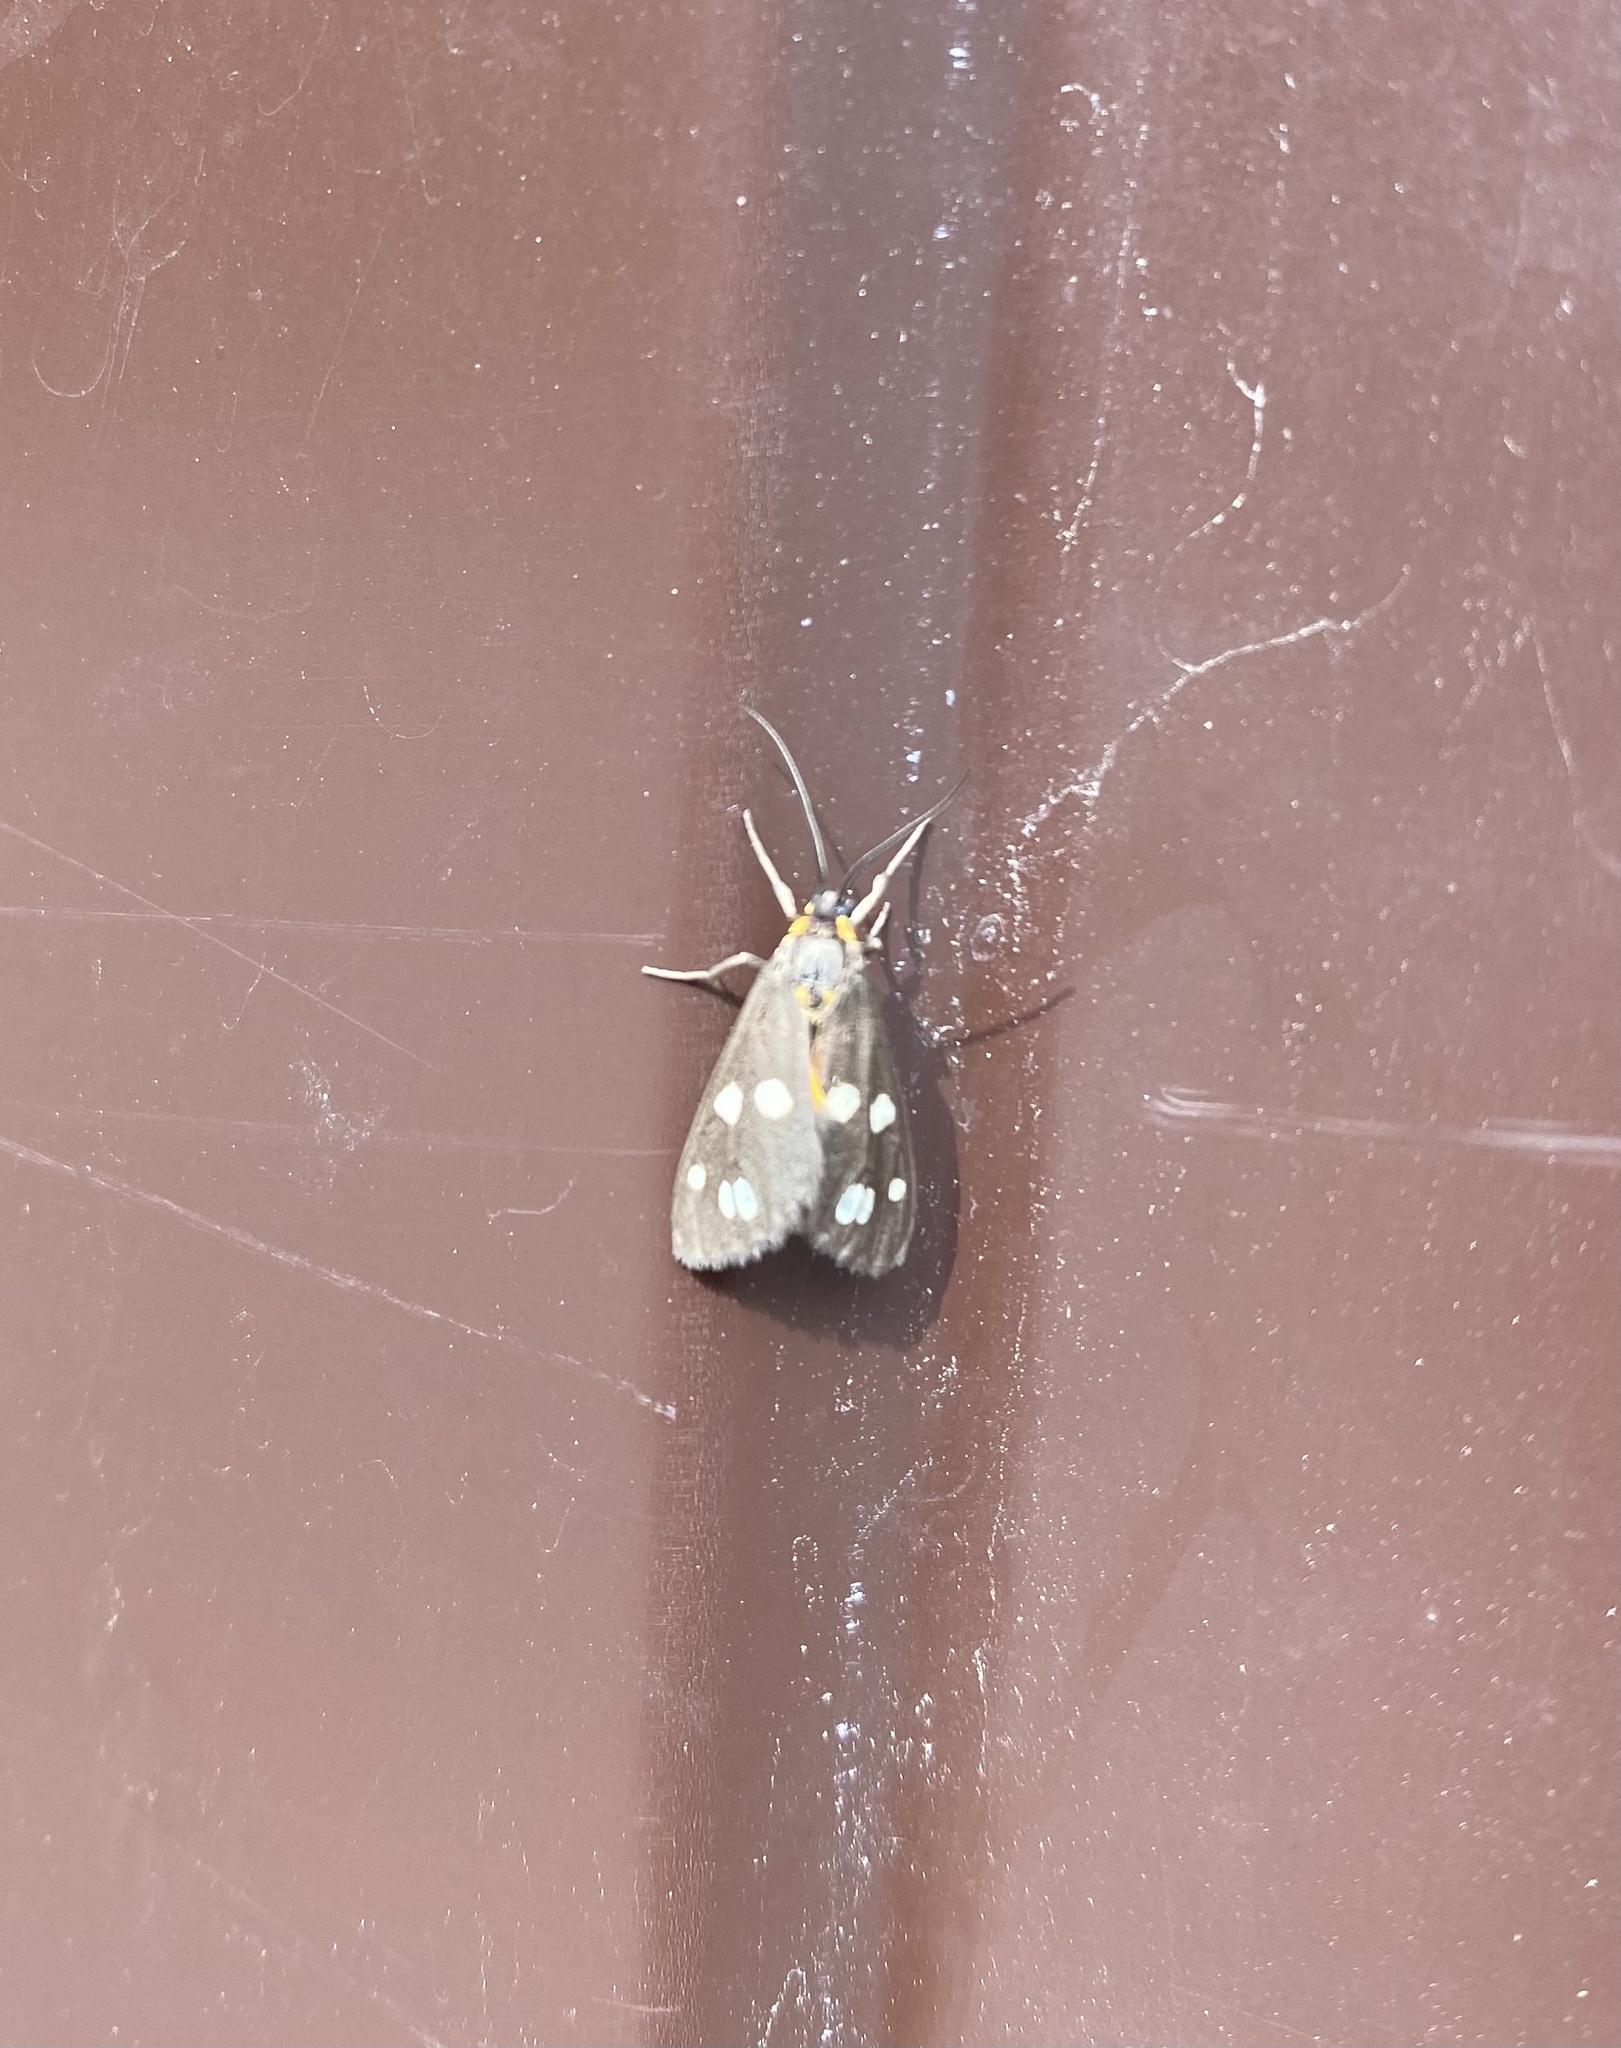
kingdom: Animalia
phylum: Arthropoda
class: Insecta
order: Lepidoptera
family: Erebidae
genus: Dysauxes
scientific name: Dysauxes punctata
